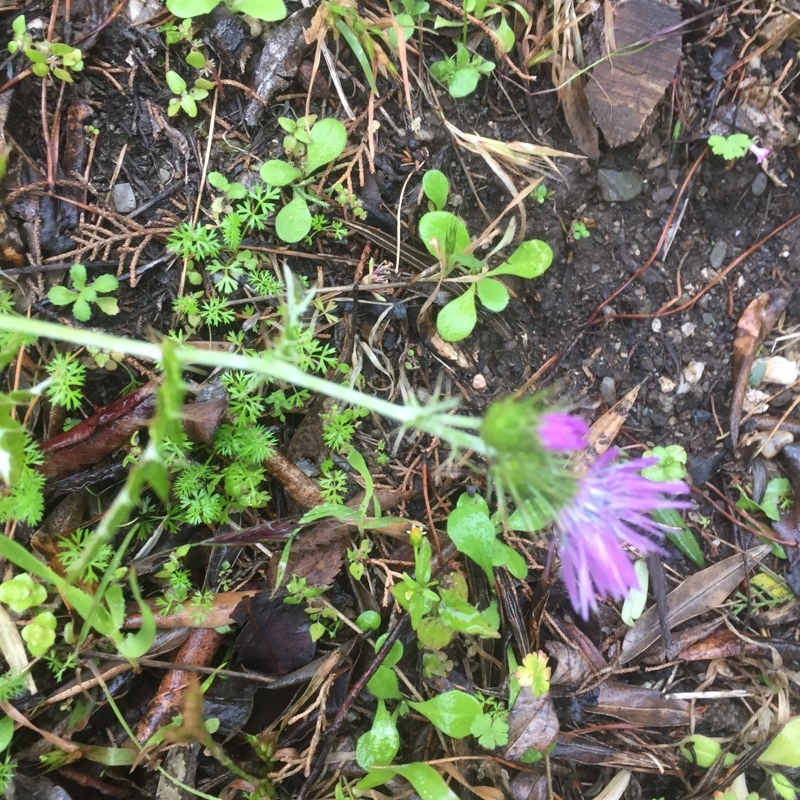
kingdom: Plantae
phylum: Tracheophyta
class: Magnoliopsida
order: Asterales
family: Asteraceae
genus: Galactites
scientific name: Galactites tomentosa
